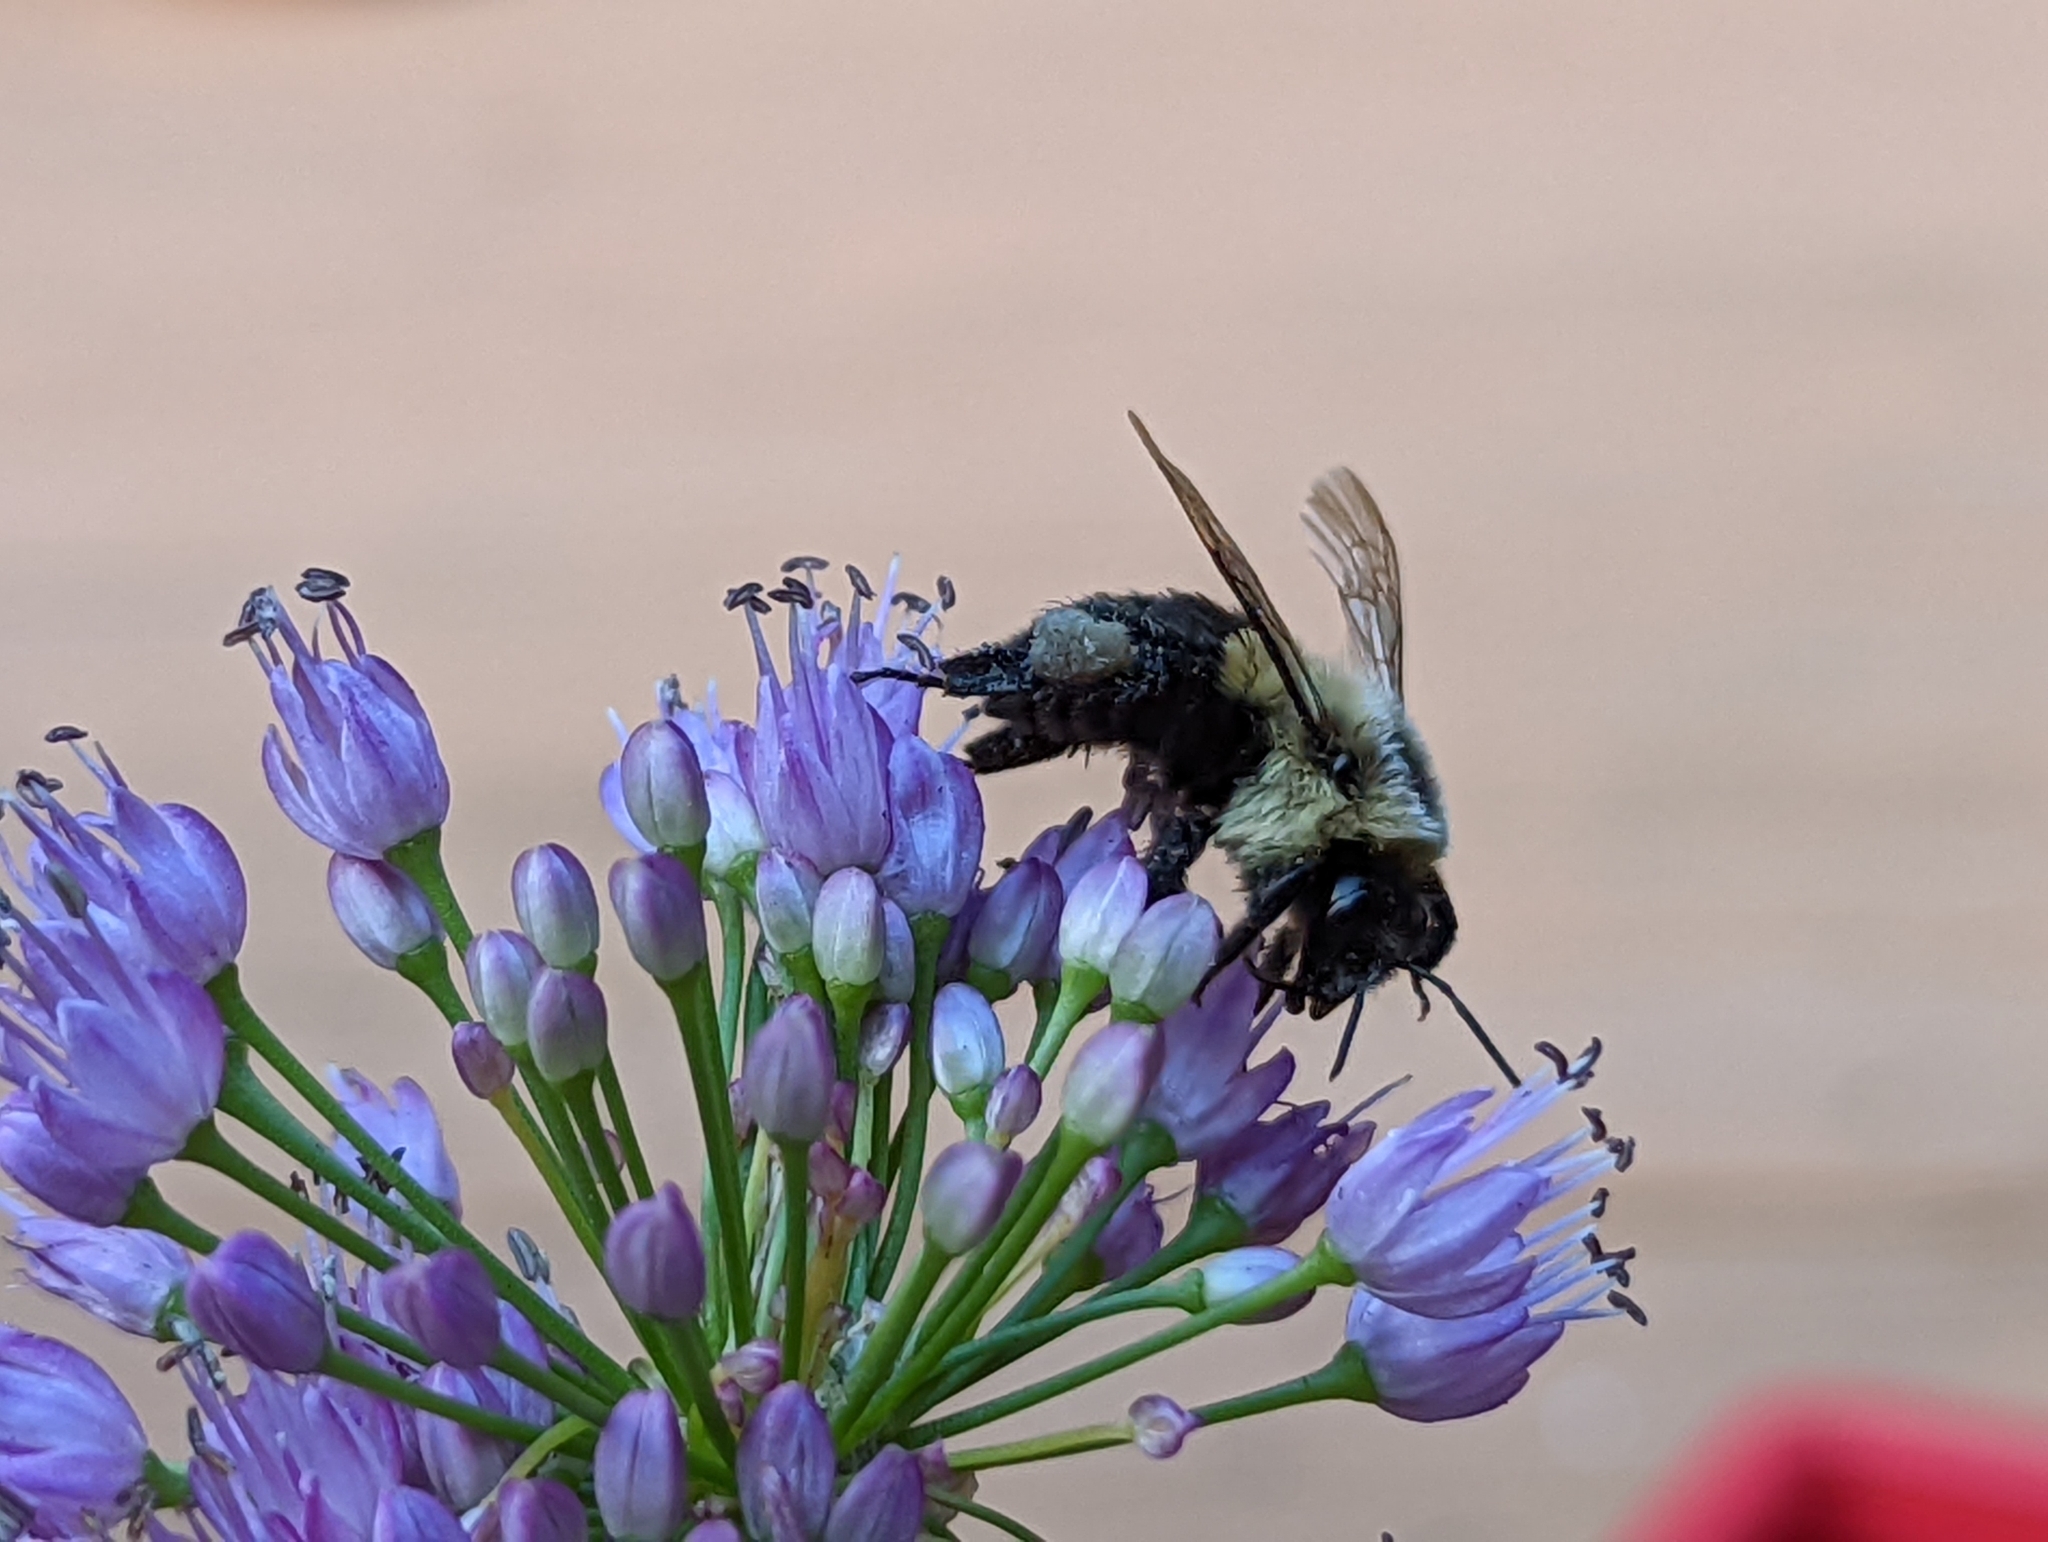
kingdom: Animalia
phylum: Arthropoda
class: Insecta
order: Hymenoptera
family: Apidae
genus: Bombus
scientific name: Bombus impatiens
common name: Common eastern bumble bee
